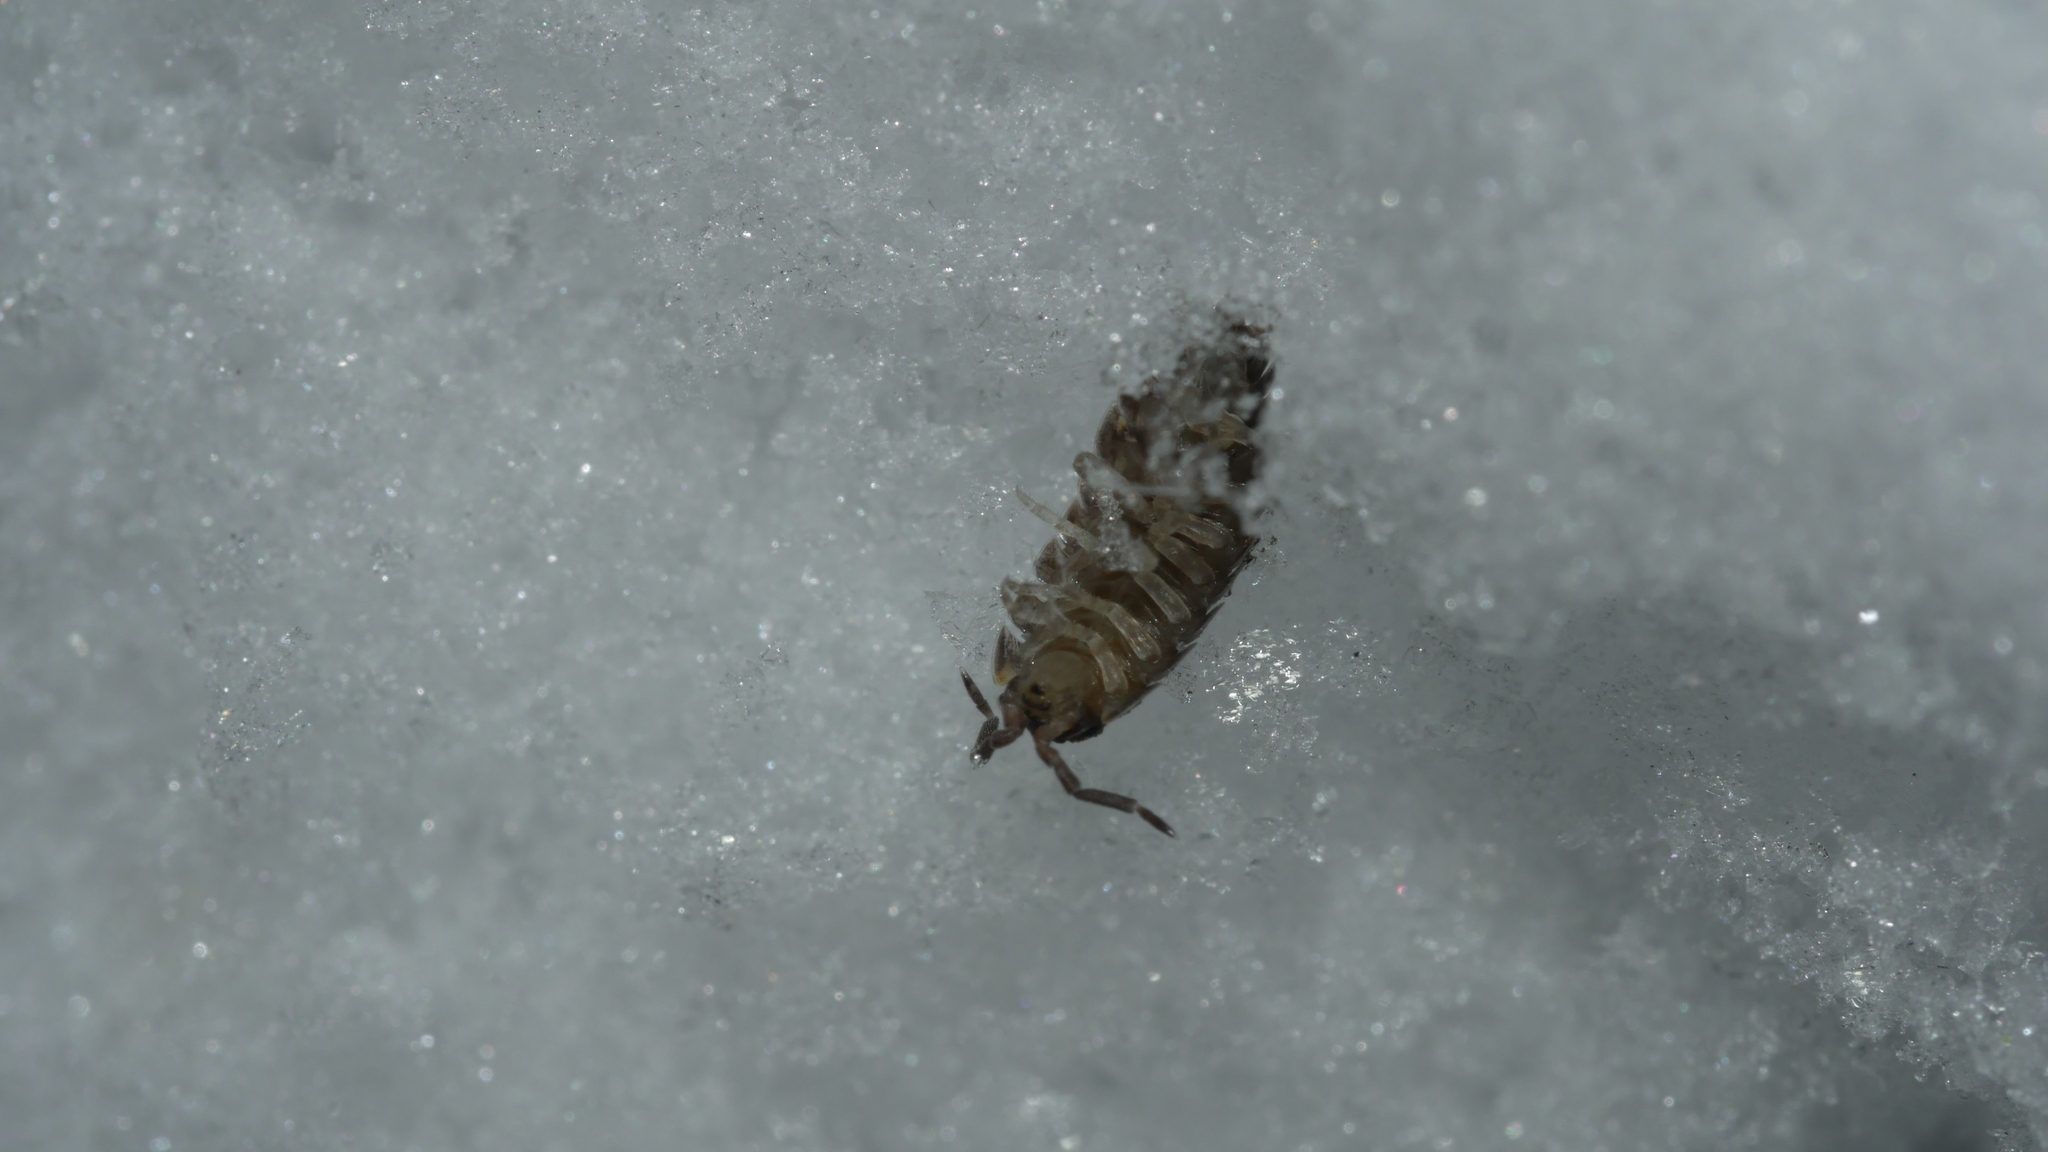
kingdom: Animalia
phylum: Arthropoda
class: Malacostraca
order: Isopoda
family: Porcellionidae
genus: Porcellio
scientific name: Porcellio scaber
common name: Common rough woodlouse
